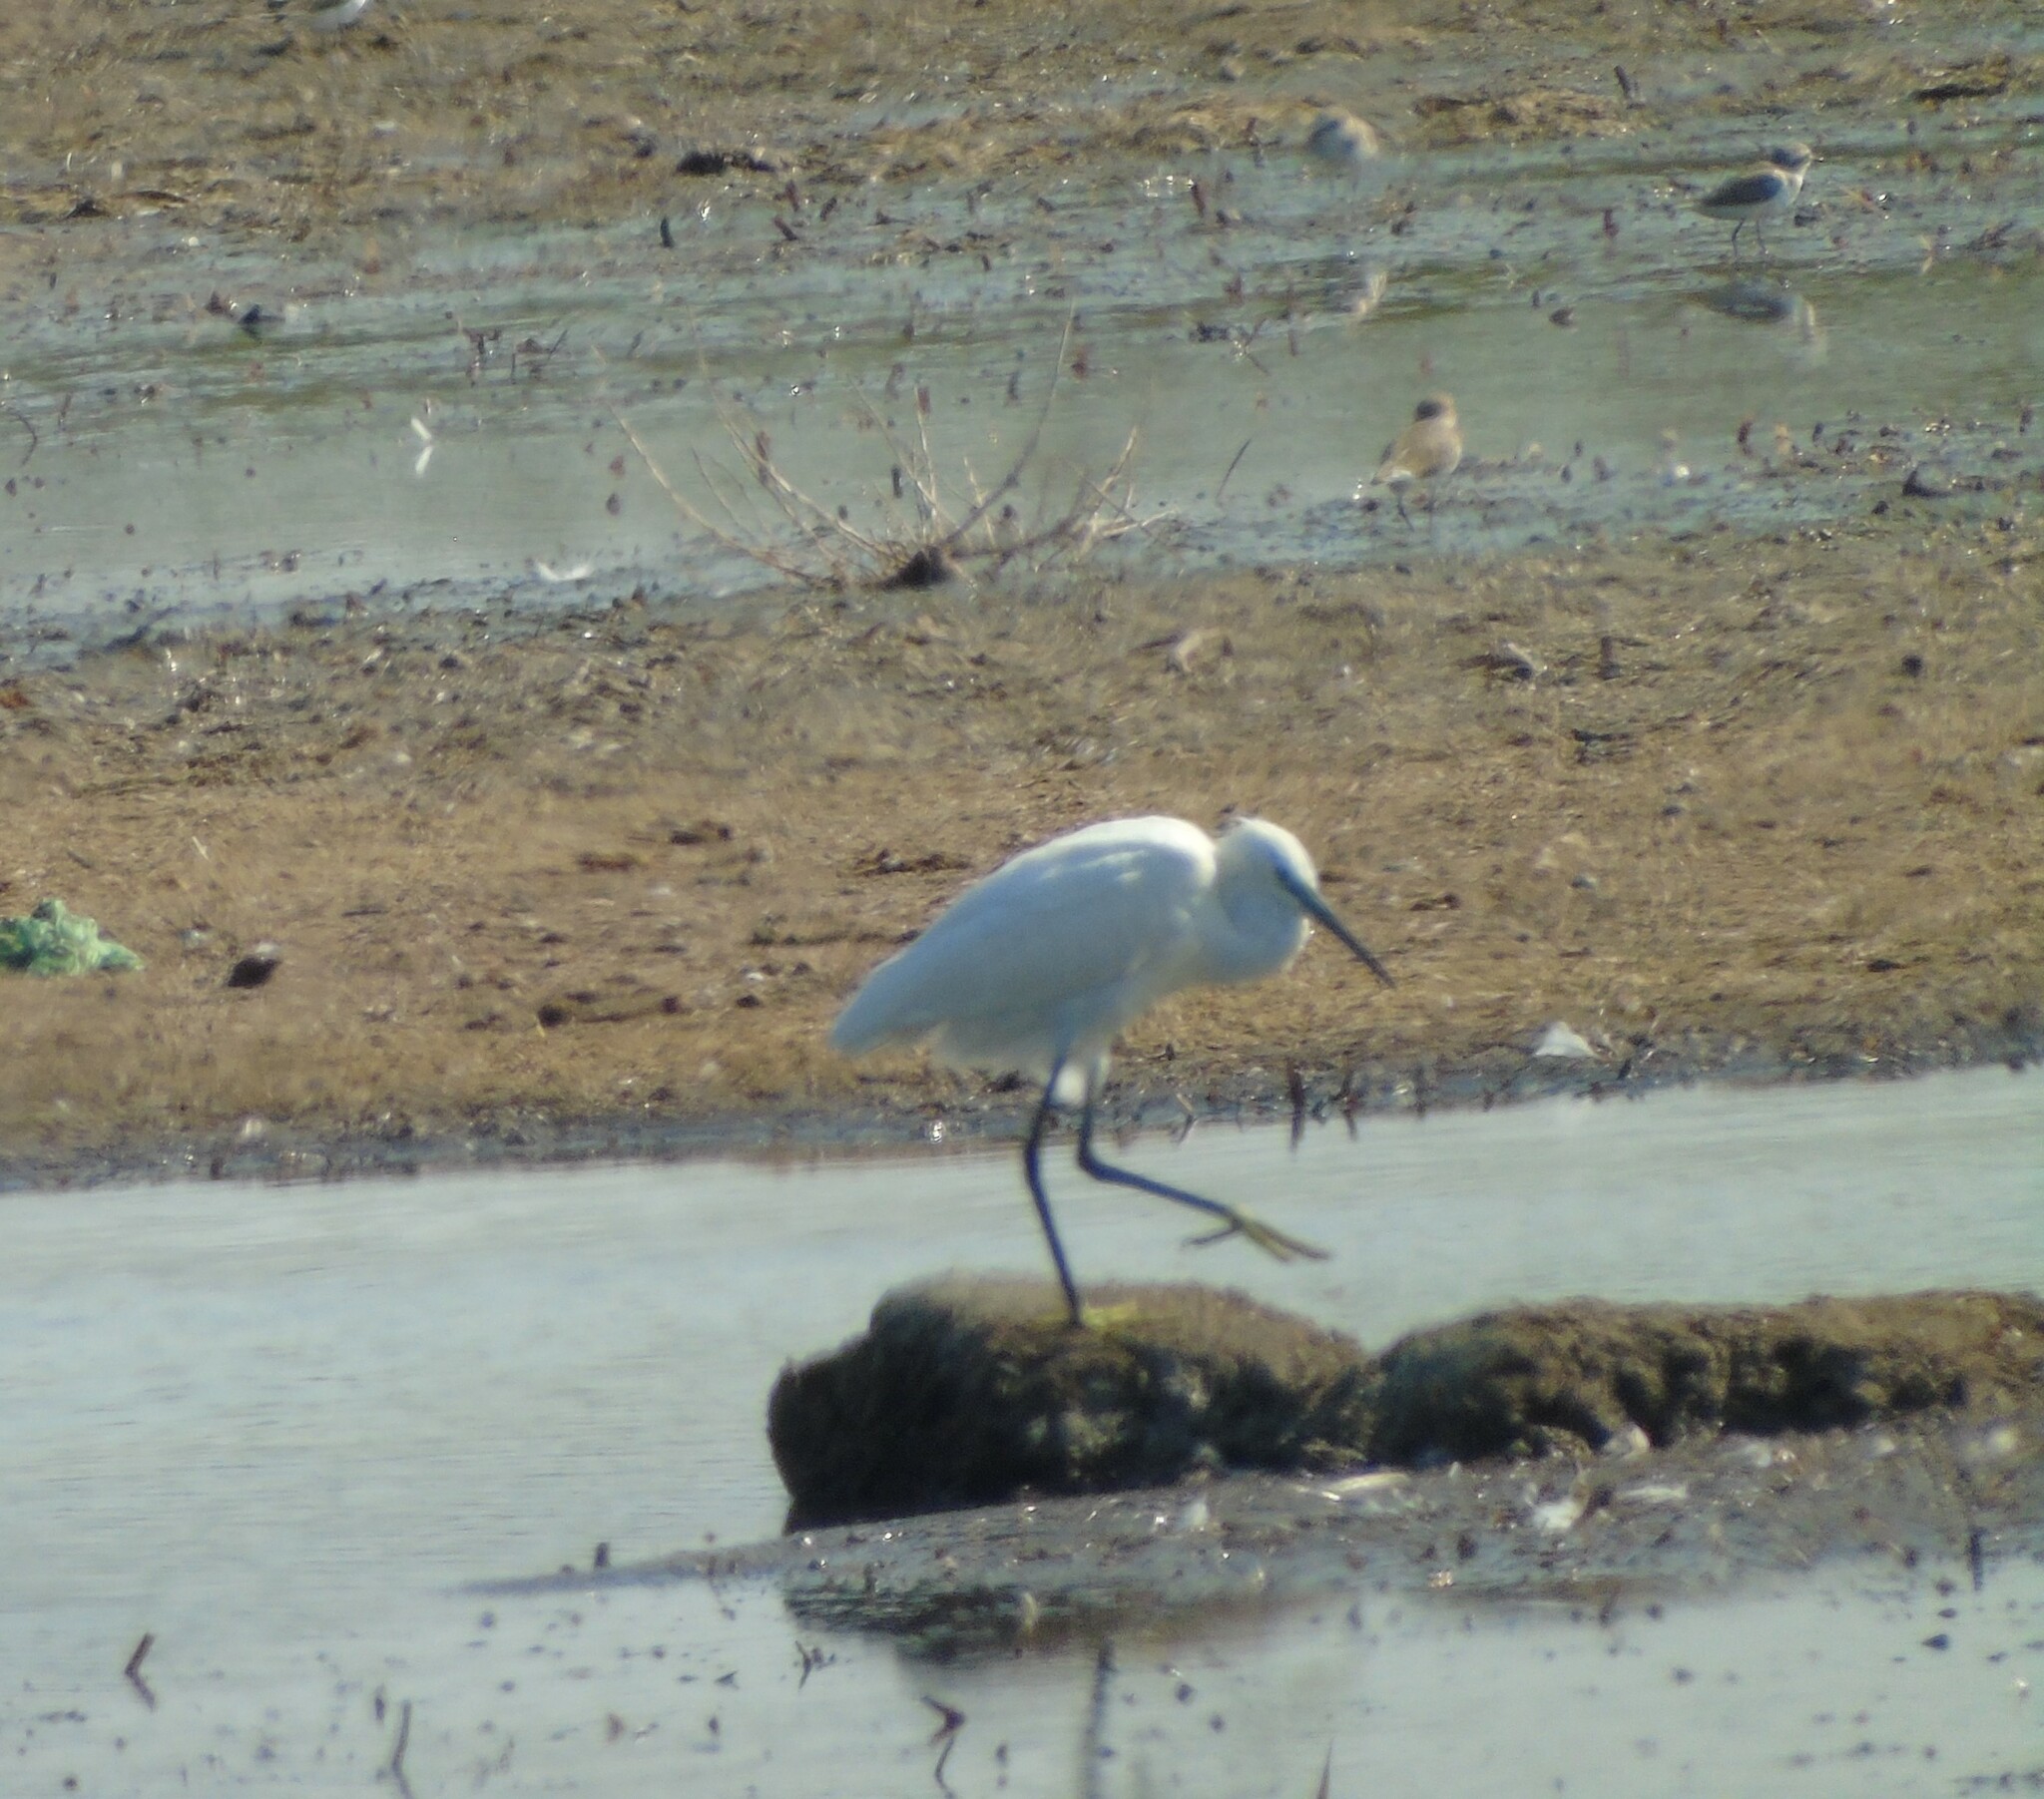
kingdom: Animalia
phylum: Chordata
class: Aves
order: Pelecaniformes
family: Ardeidae
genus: Egretta
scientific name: Egretta garzetta
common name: Little egret
